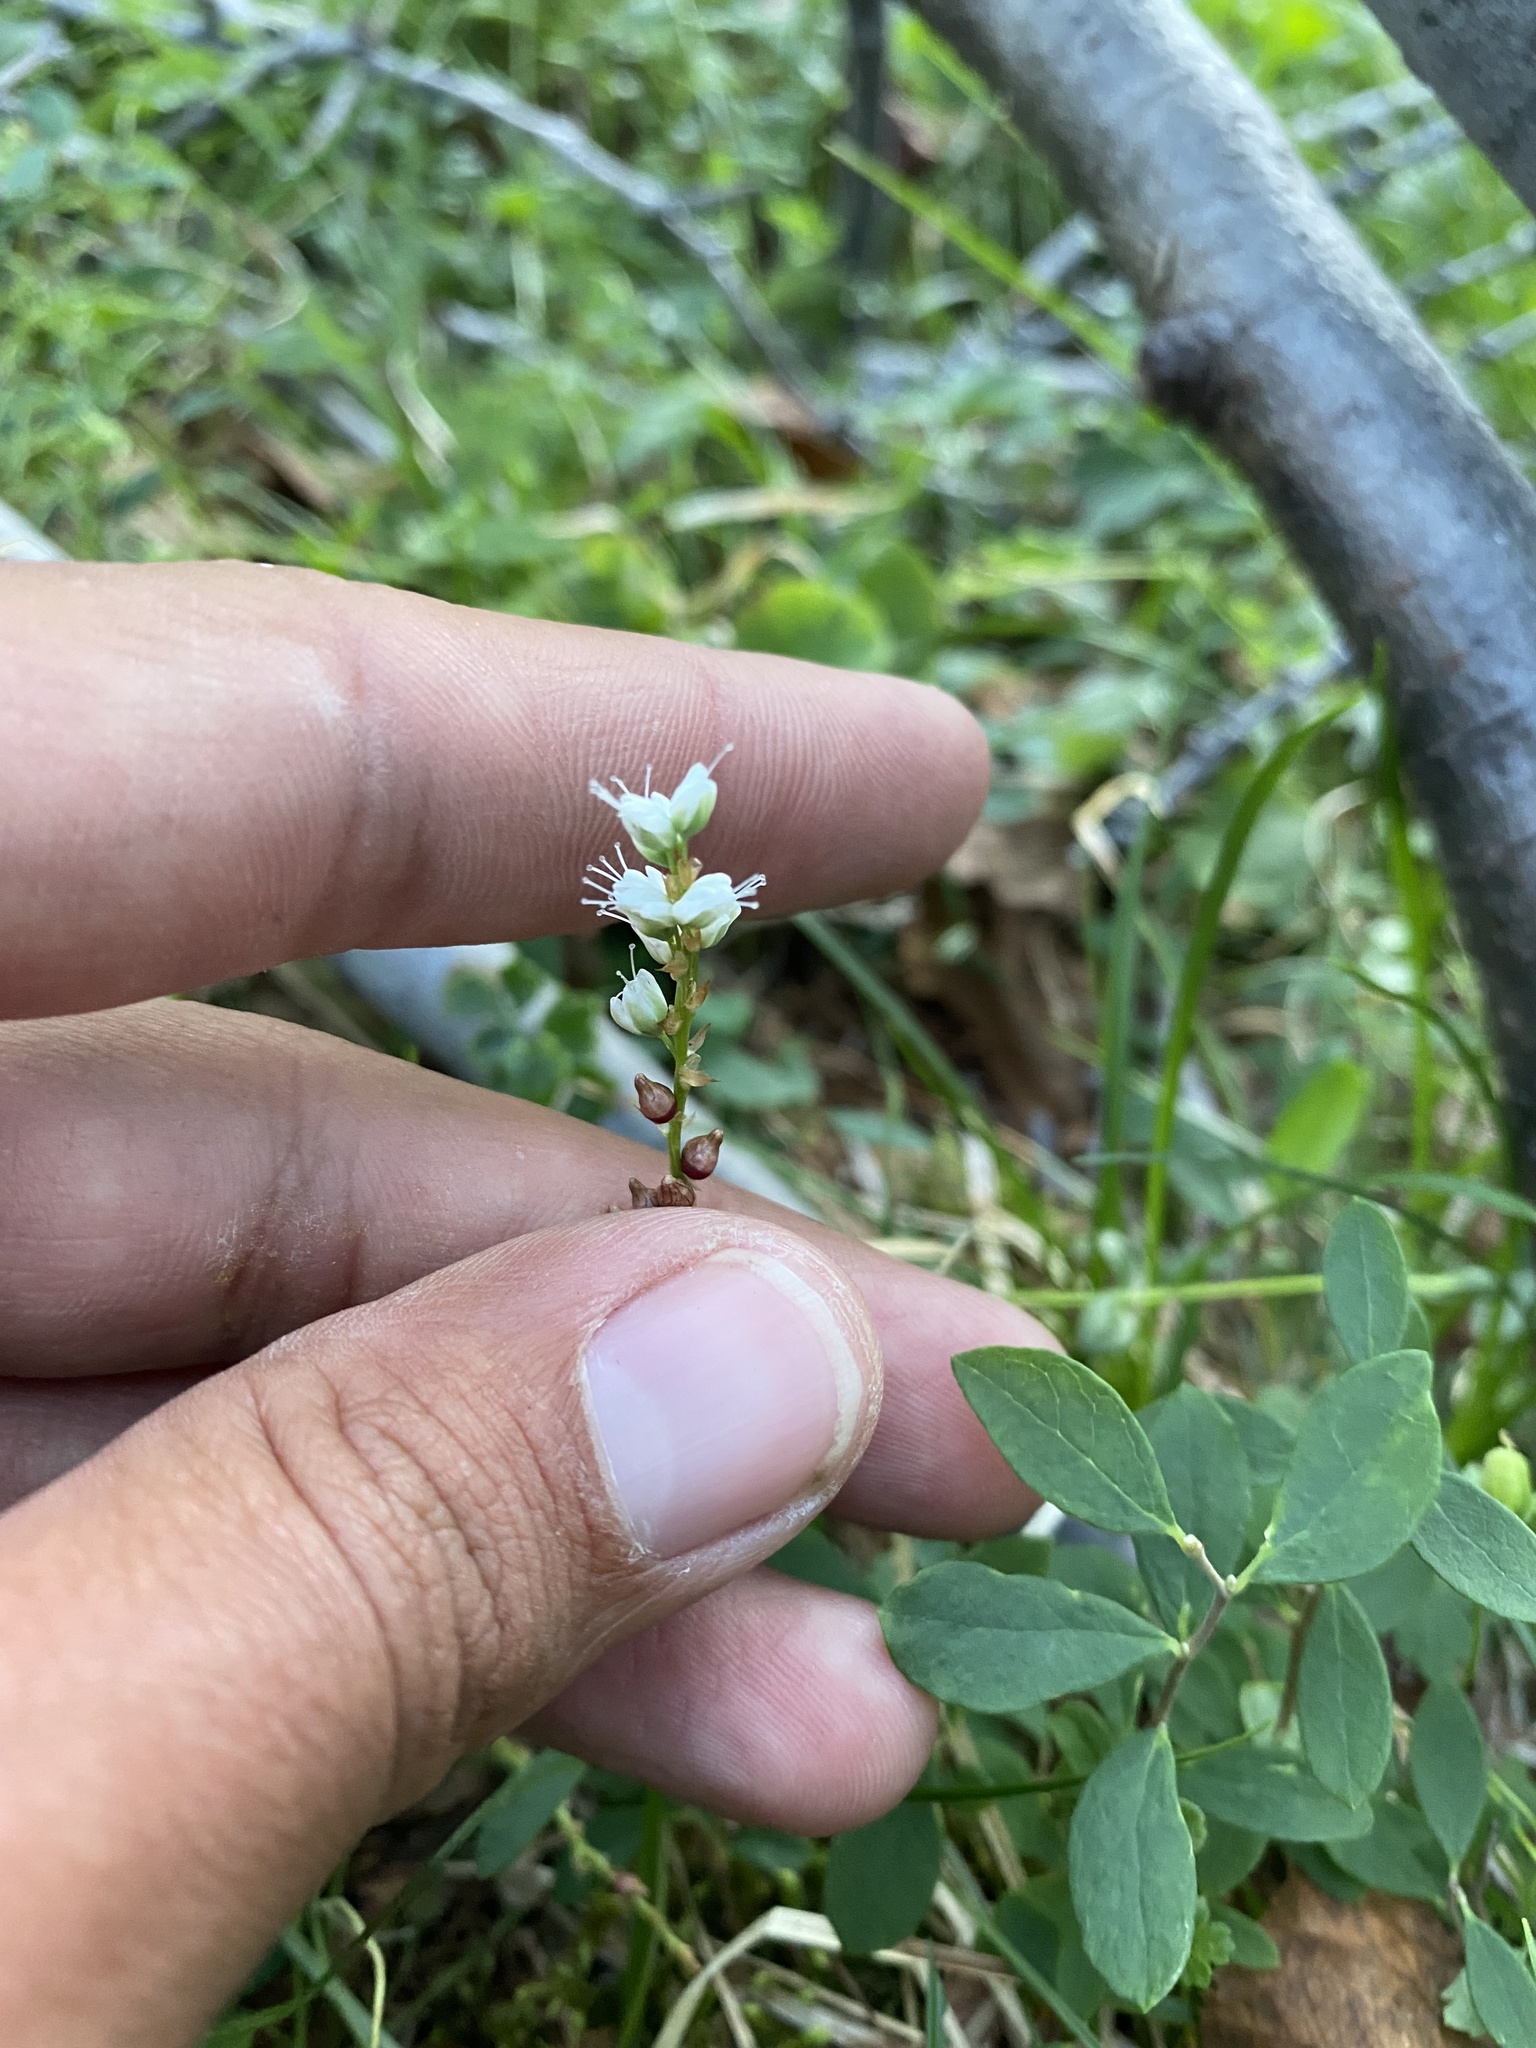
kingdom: Plantae
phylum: Tracheophyta
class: Magnoliopsida
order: Caryophyllales
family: Polygonaceae
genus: Bistorta
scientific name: Bistorta vivipara
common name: Alpine bistort
